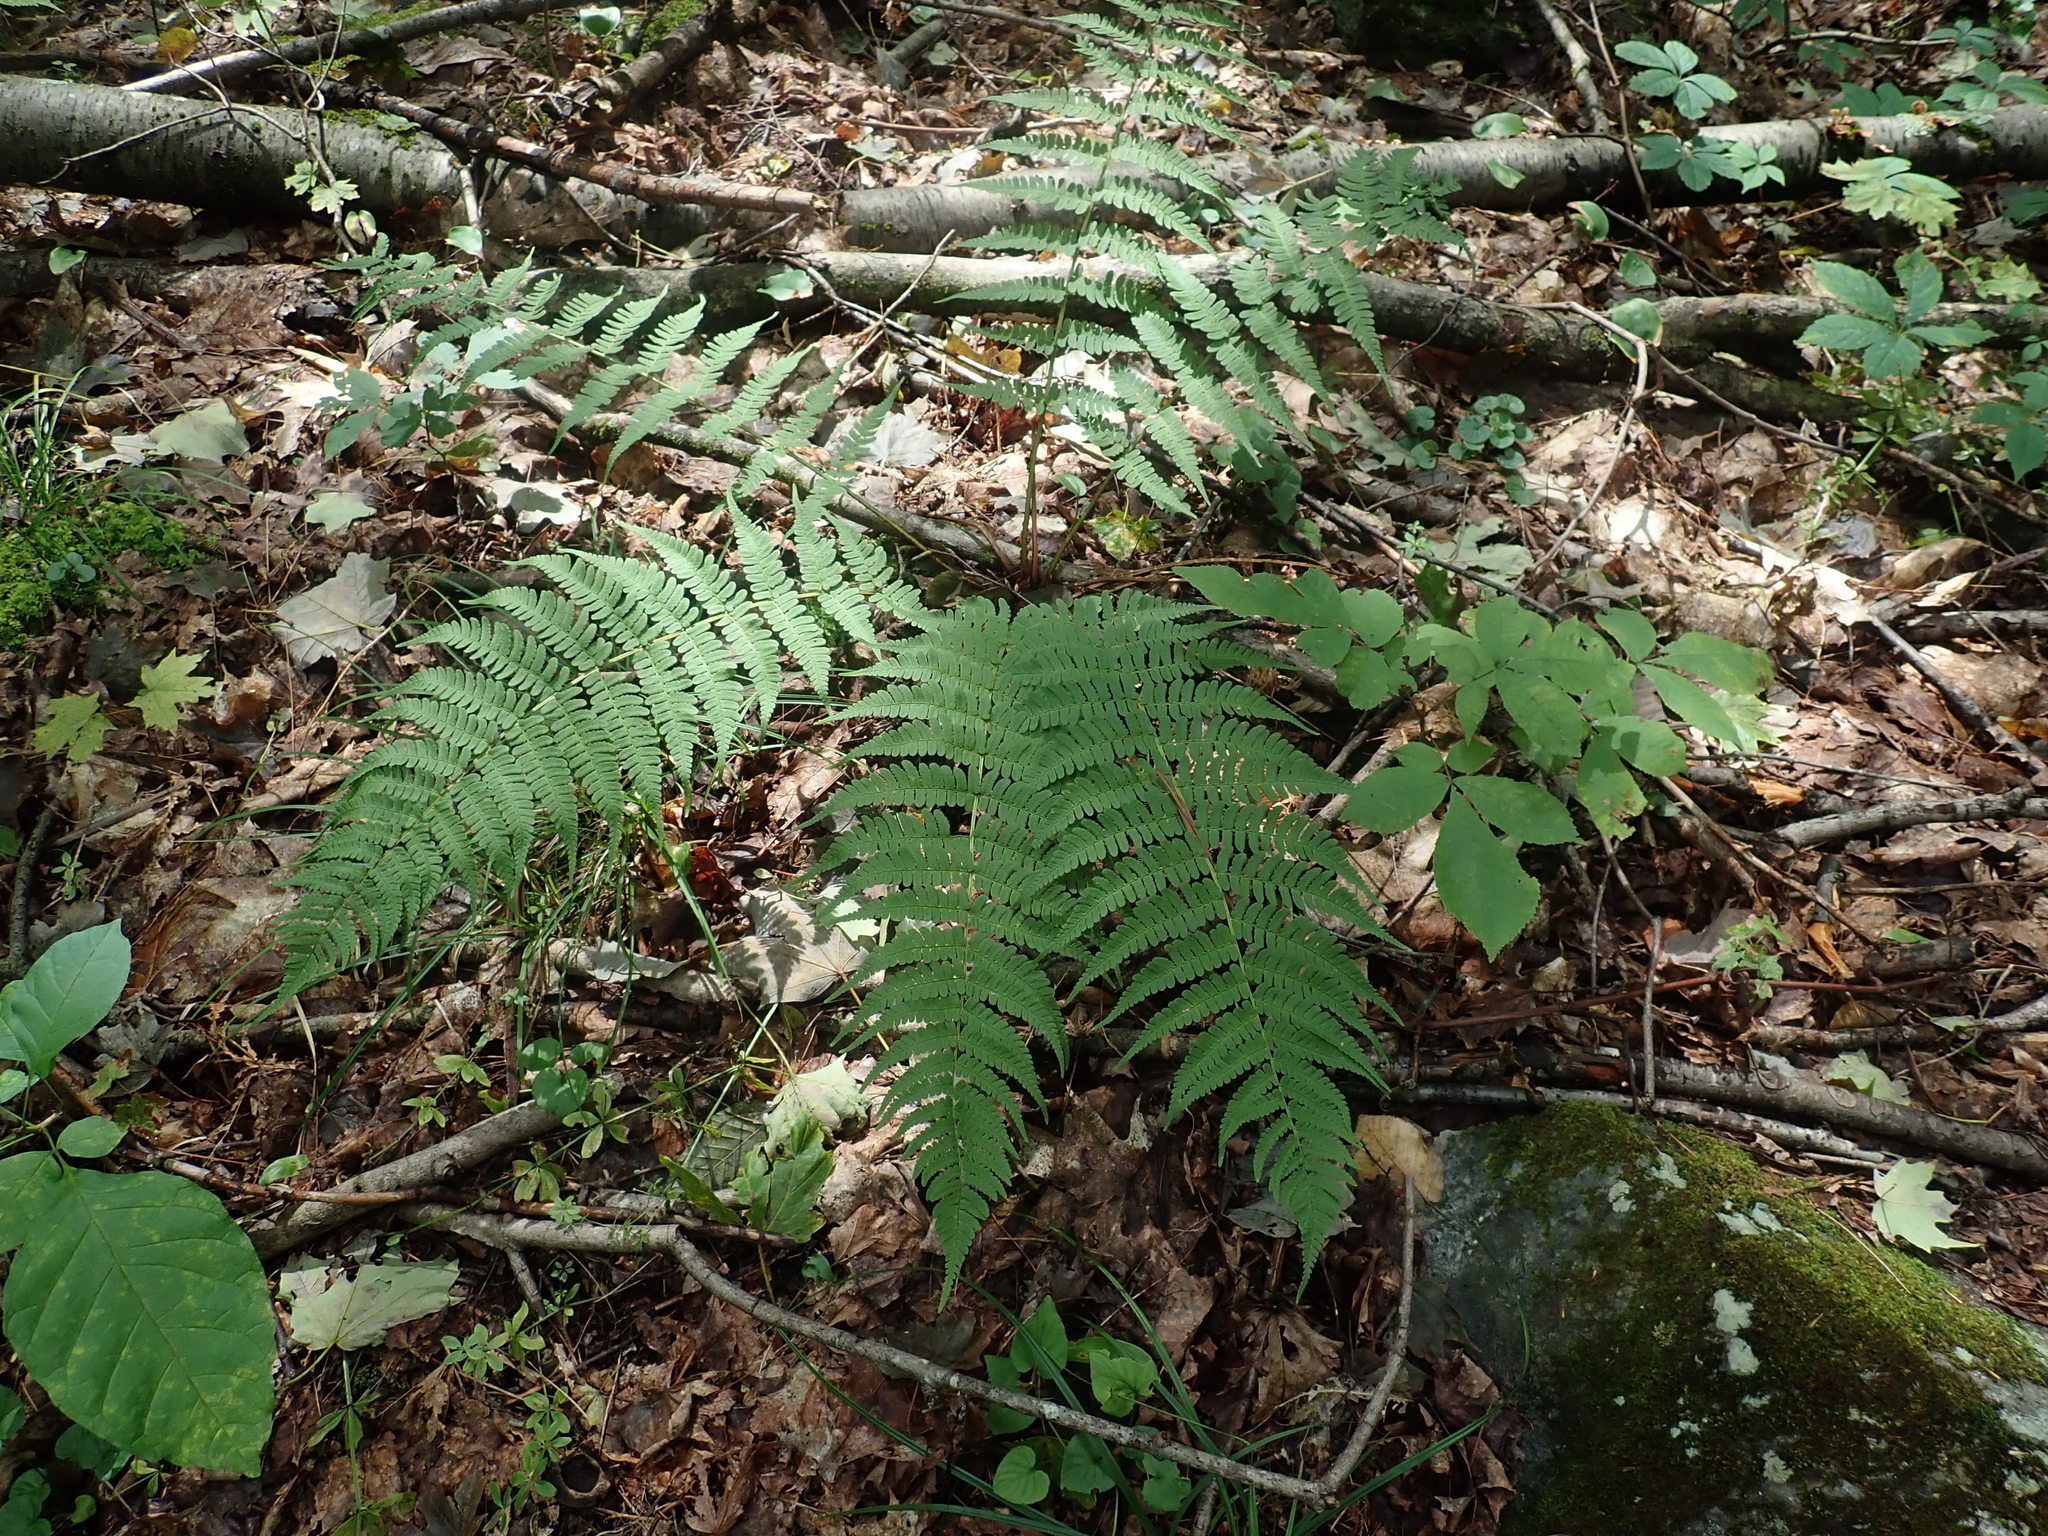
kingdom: Plantae
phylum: Tracheophyta
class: Polypodiopsida
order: Polypodiales
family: Dryopteridaceae
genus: Dryopteris
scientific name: Dryopteris marginalis
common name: Marginal wood fern
